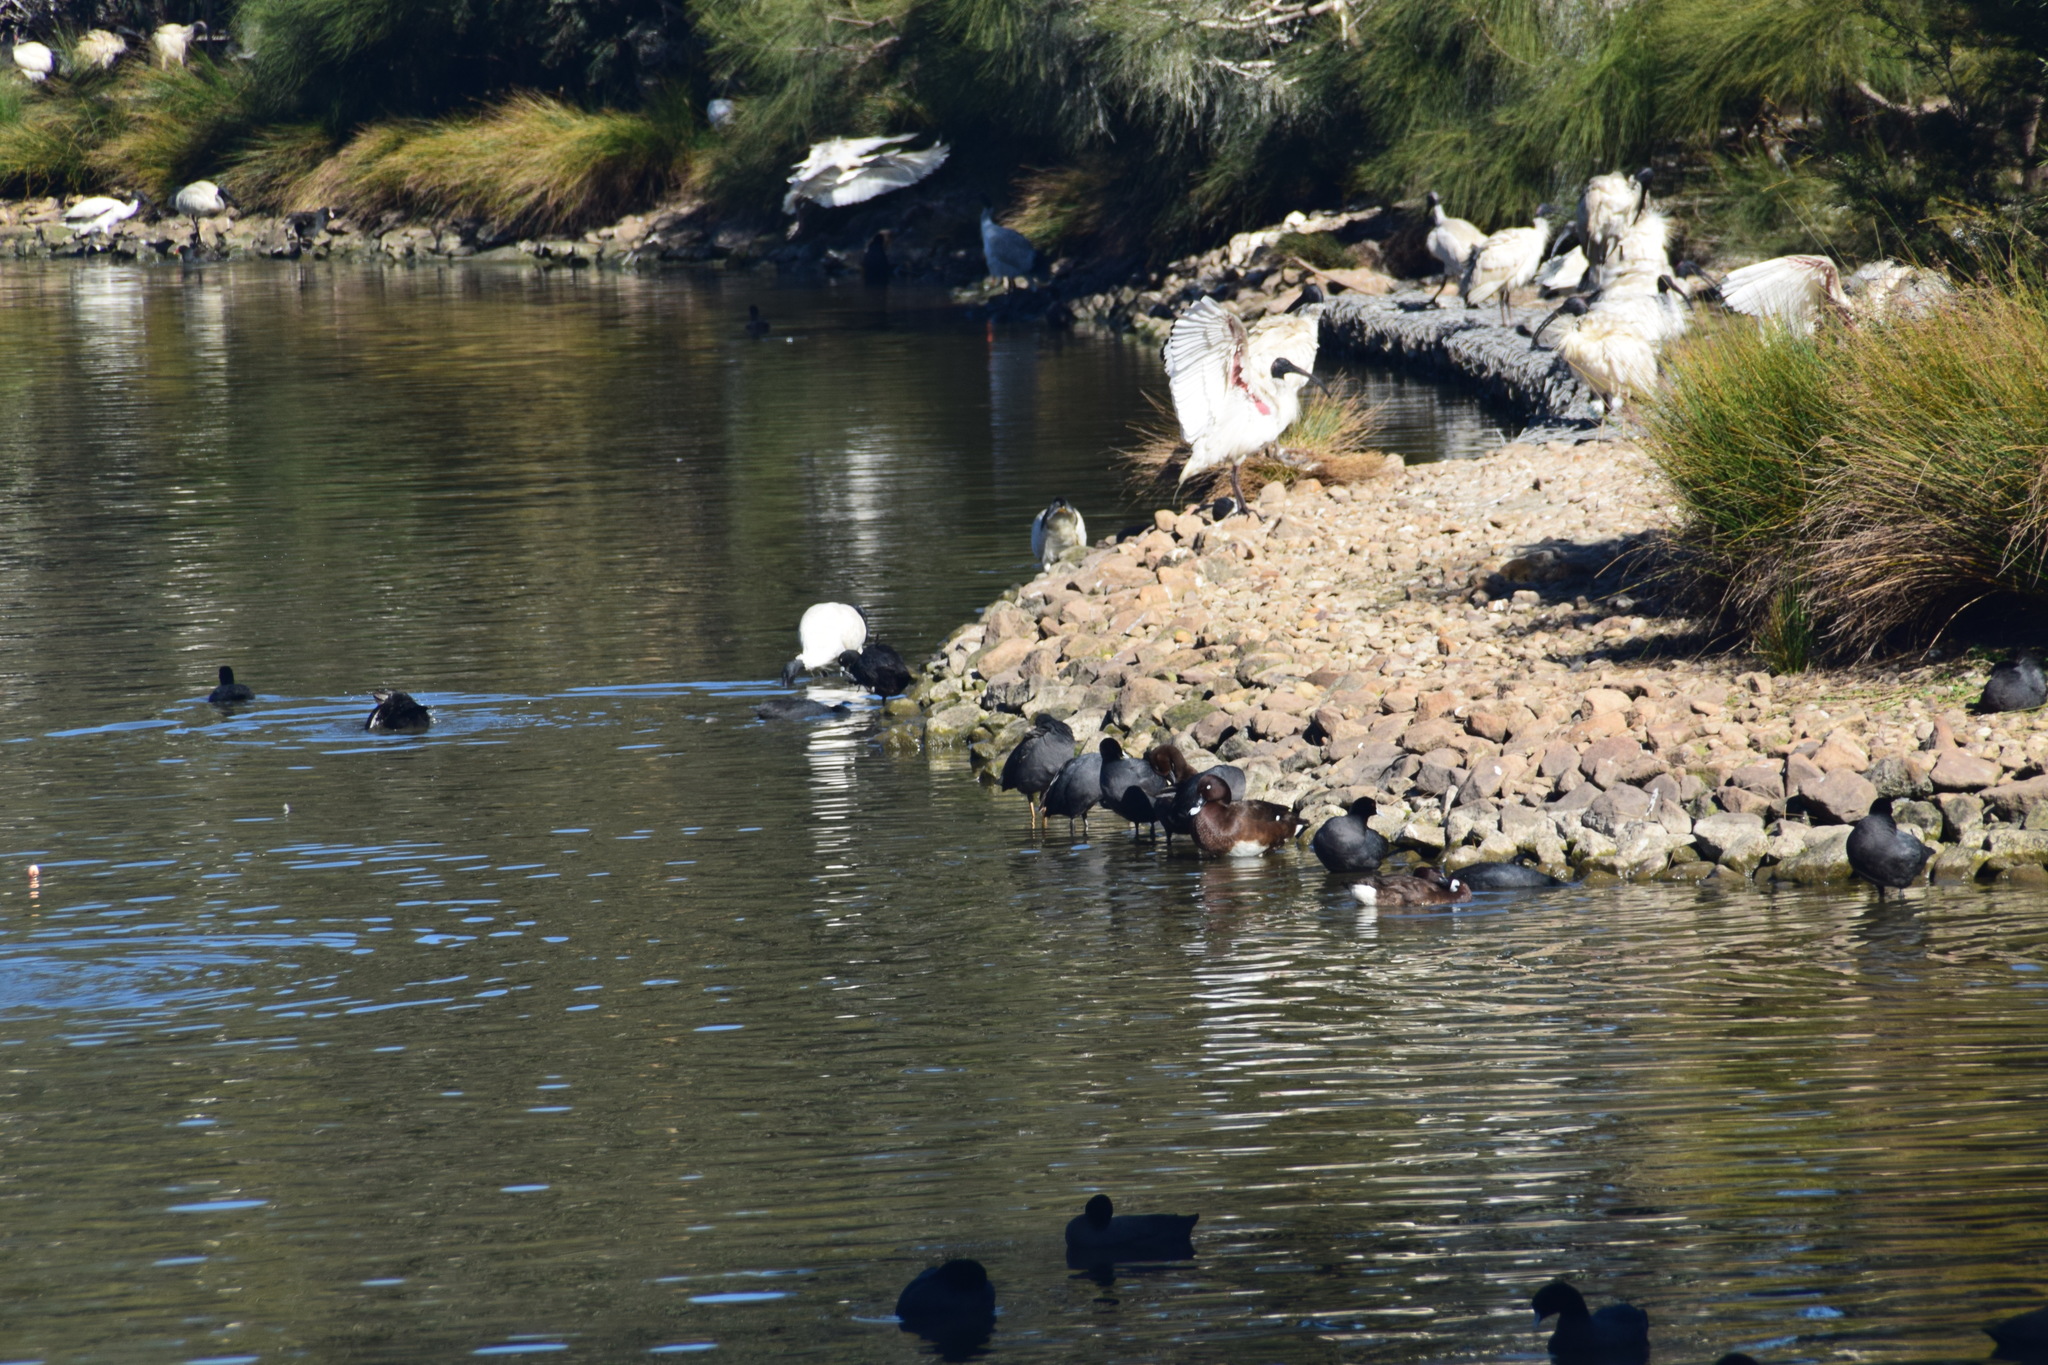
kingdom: Animalia
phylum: Chordata
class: Aves
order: Pelecaniformes
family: Threskiornithidae
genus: Threskiornis
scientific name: Threskiornis molucca
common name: Australian white ibis
